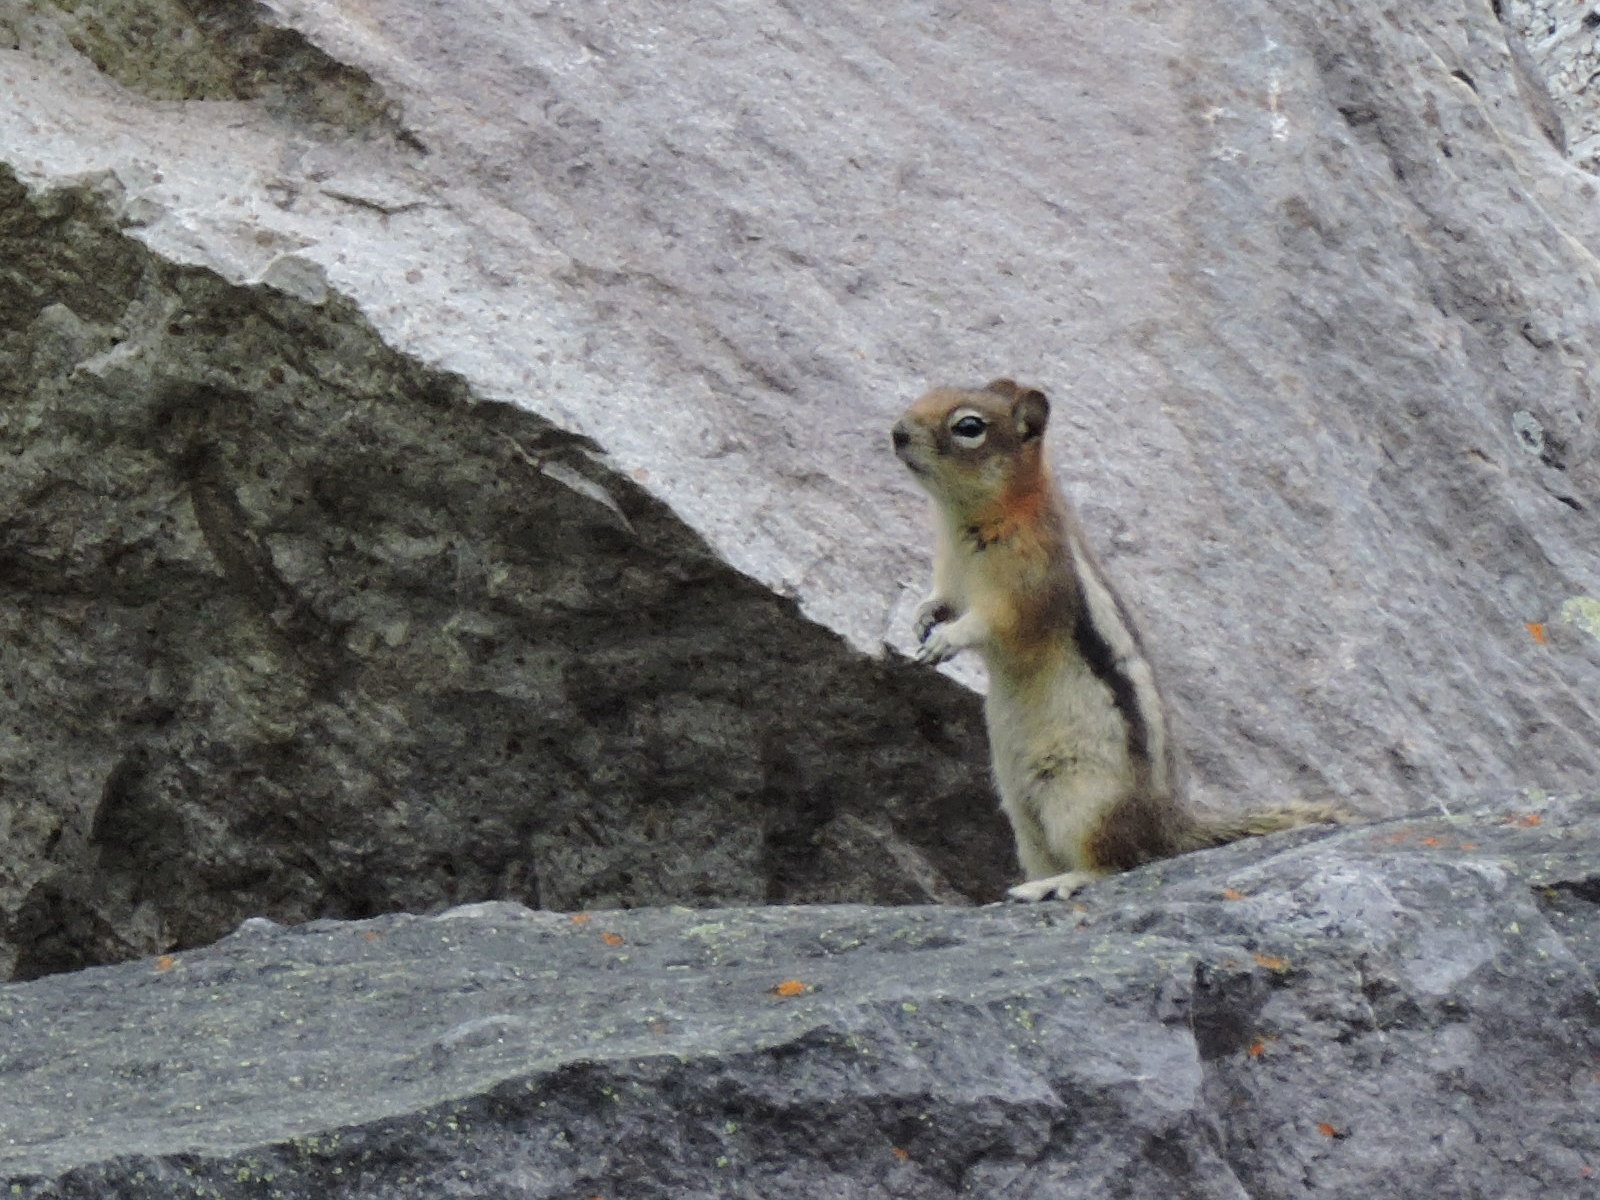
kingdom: Animalia
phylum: Chordata
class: Mammalia
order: Rodentia
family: Sciuridae
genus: Callospermophilus
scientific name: Callospermophilus lateralis
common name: Golden-mantled ground squirrel
